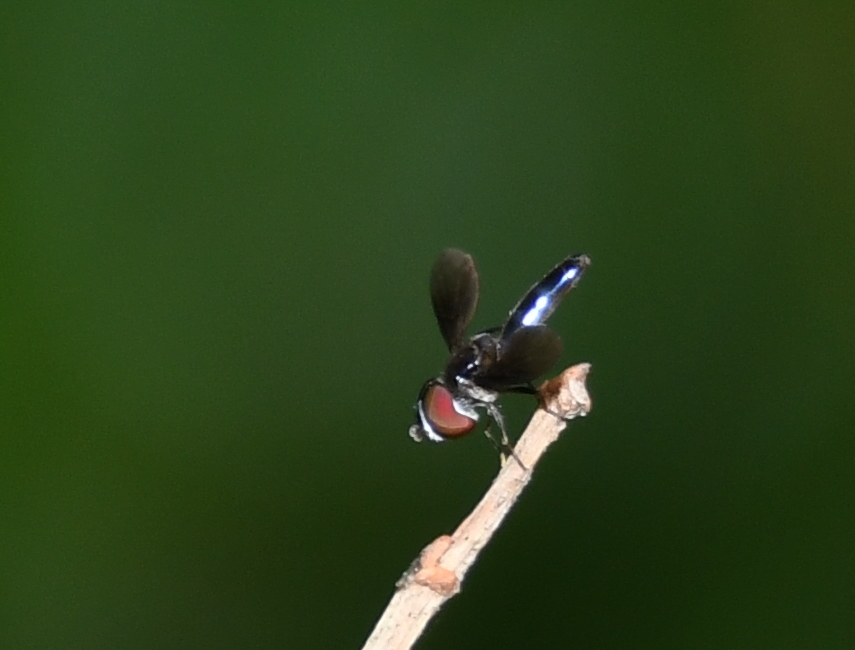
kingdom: Animalia
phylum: Arthropoda
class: Insecta
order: Diptera
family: Syrphidae
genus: Ocyptamus
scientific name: Ocyptamus dimidiatus
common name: Syrphid fly
